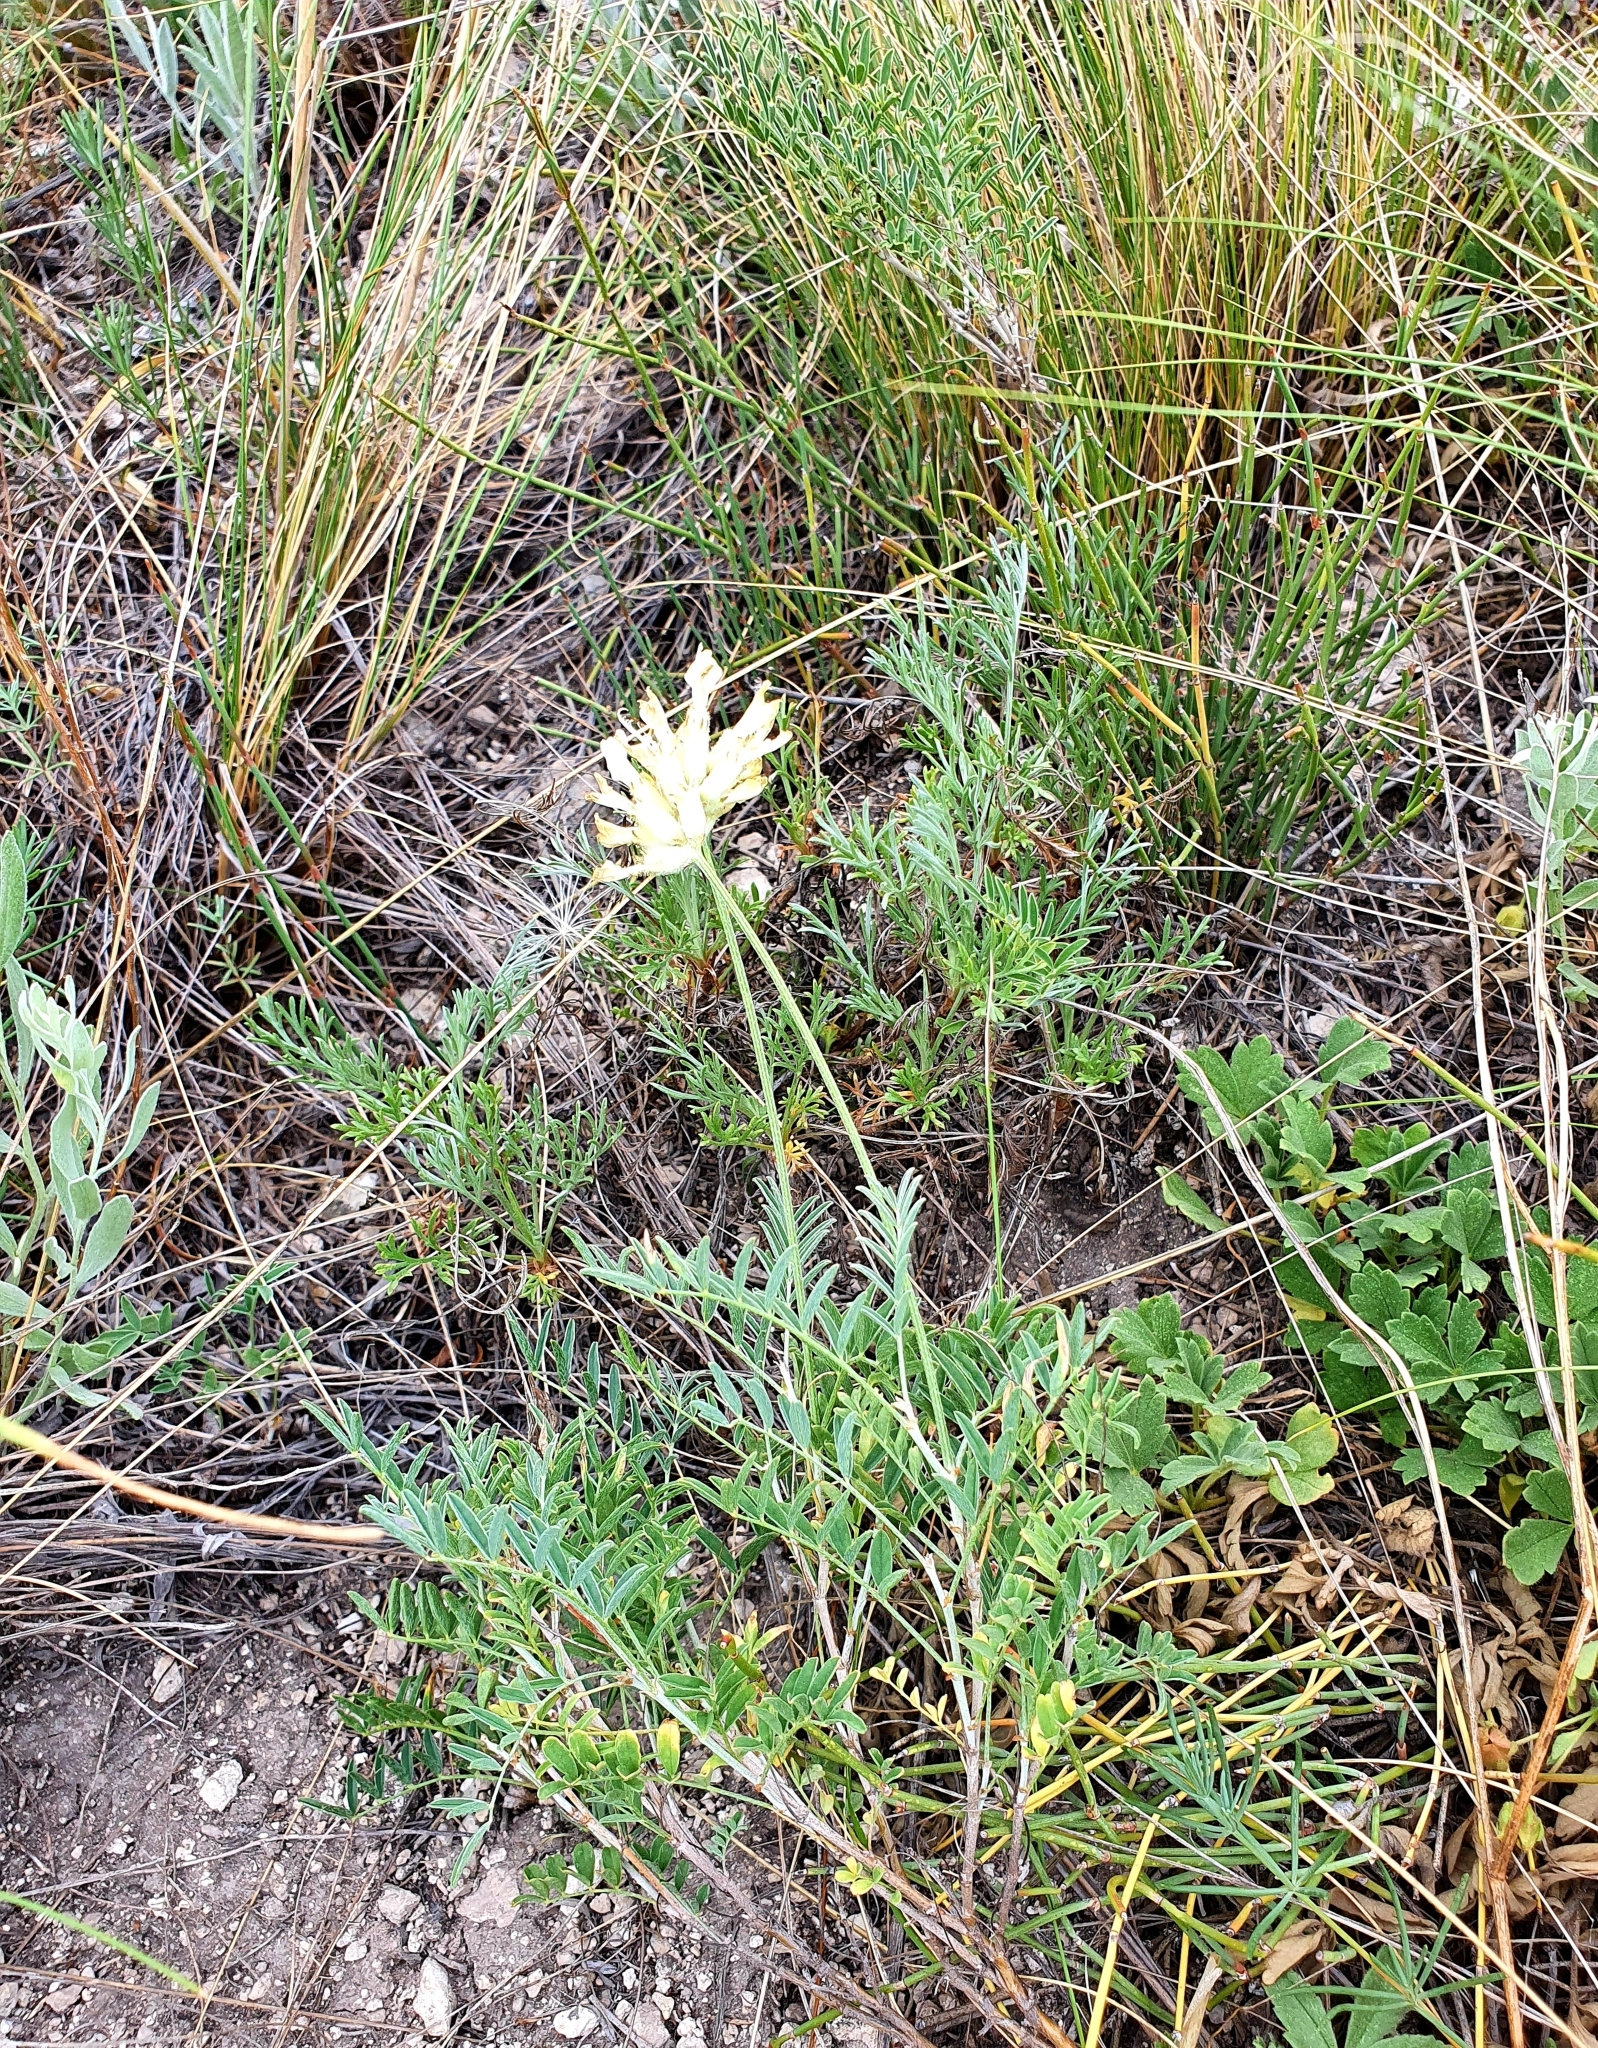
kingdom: Plantae
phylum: Tracheophyta
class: Magnoliopsida
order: Fabales
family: Fabaceae
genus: Astragalus
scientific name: Astragalus zingeri
